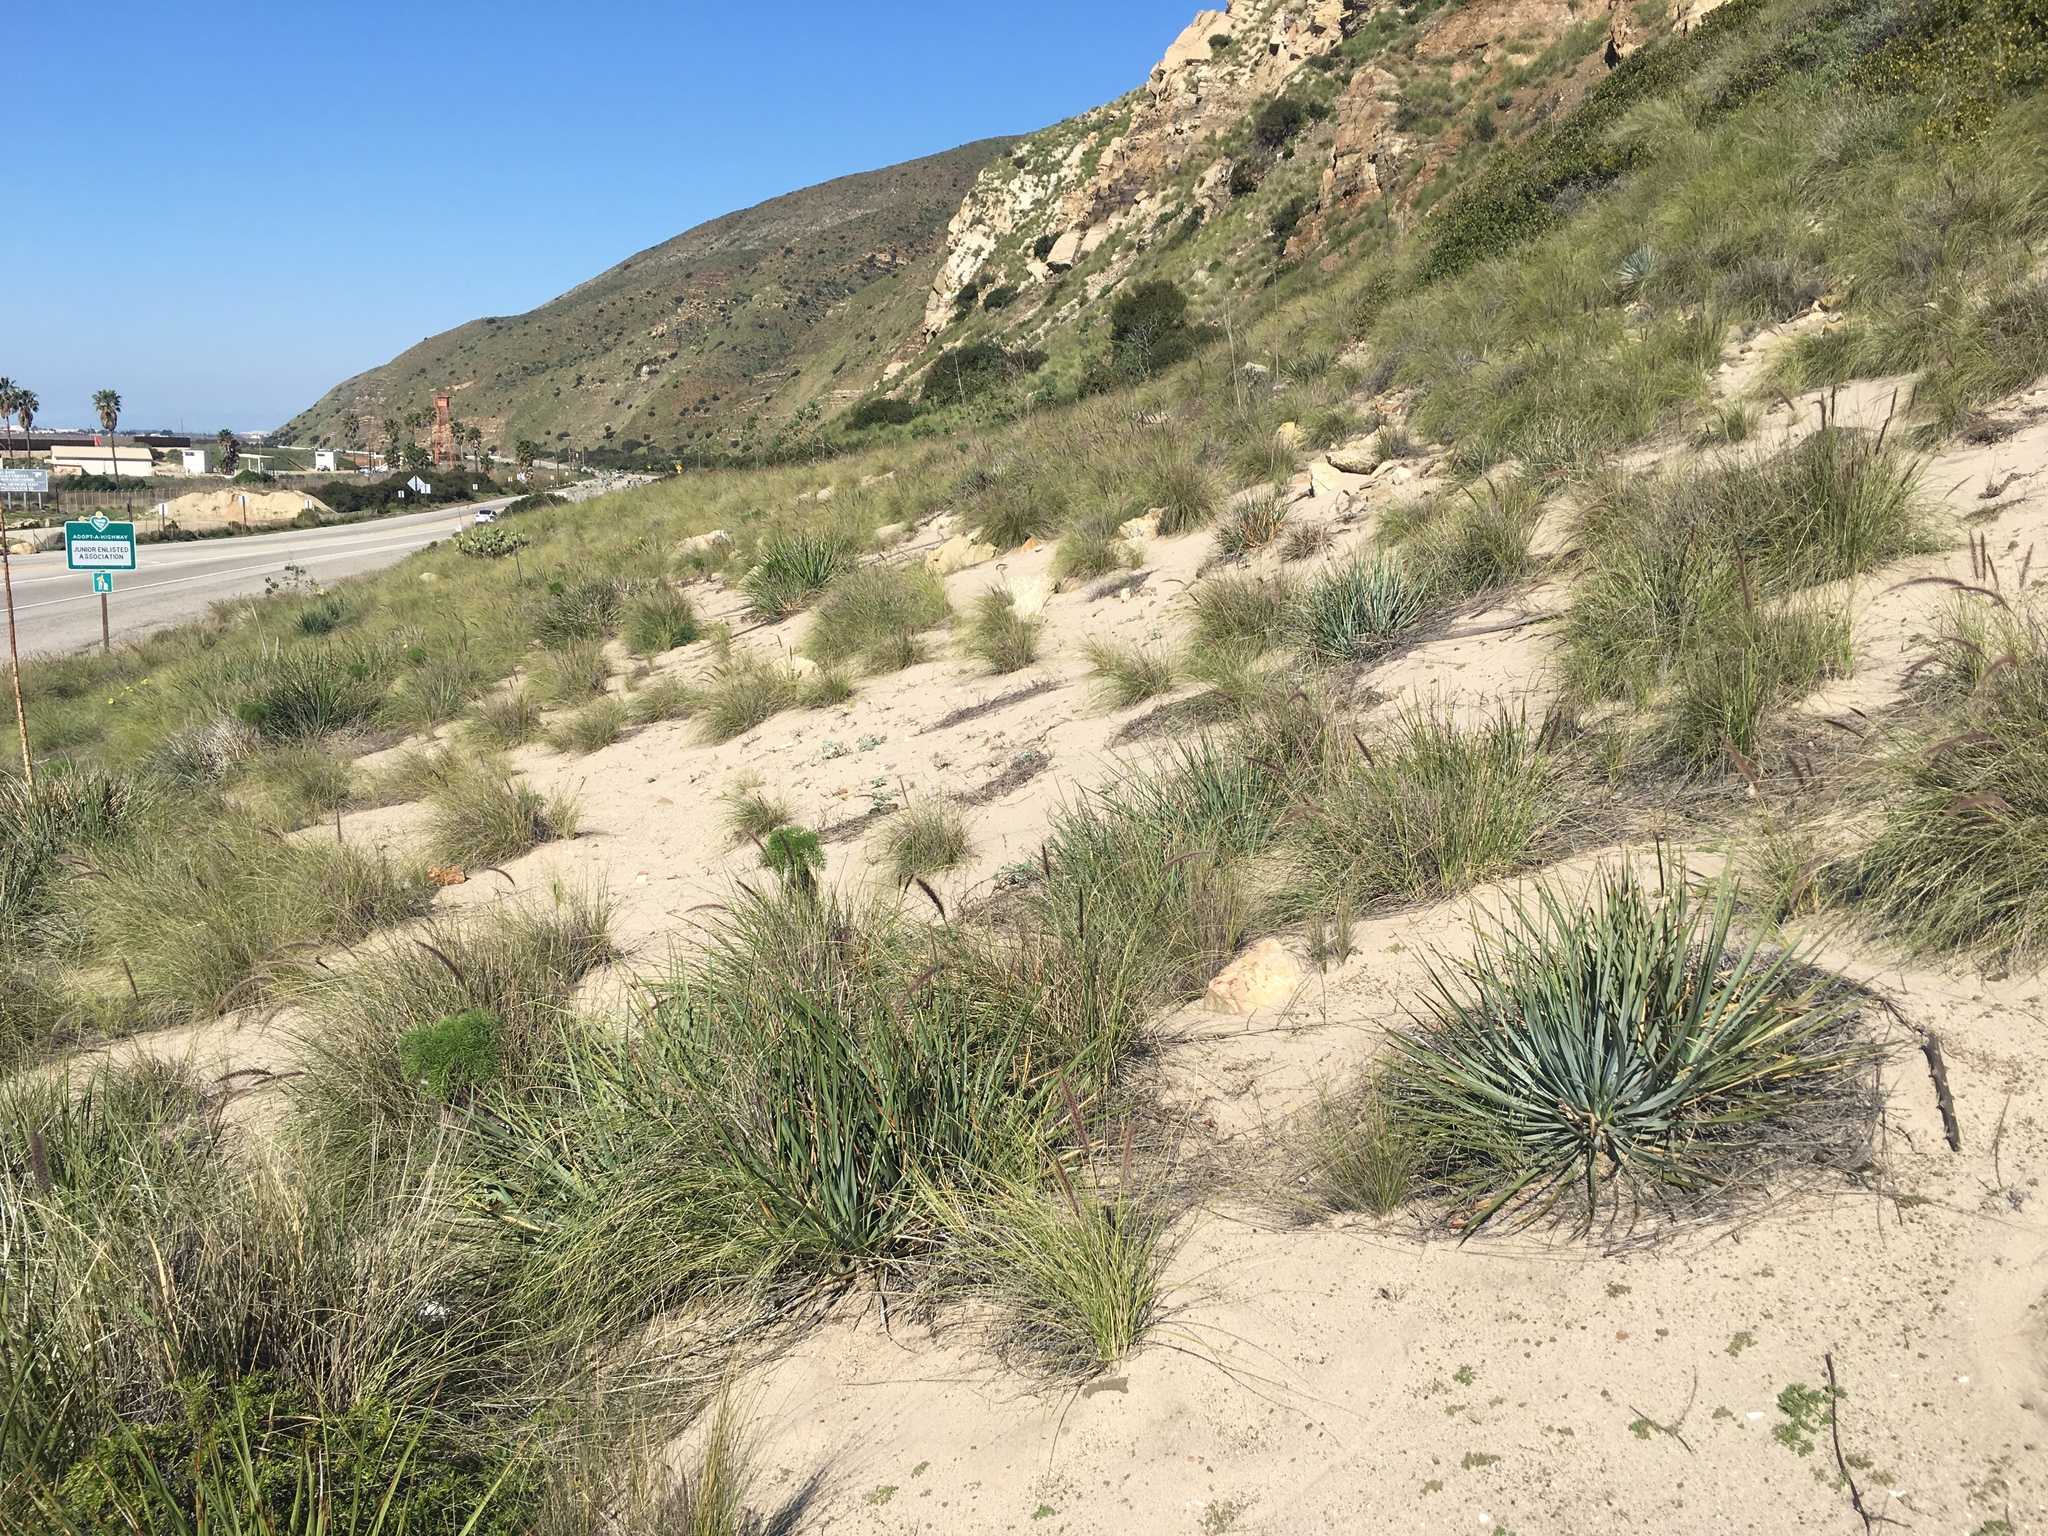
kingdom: Plantae
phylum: Tracheophyta
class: Liliopsida
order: Poales
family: Poaceae
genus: Cenchrus
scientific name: Cenchrus setaceus
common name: Crimson fountaingrass
